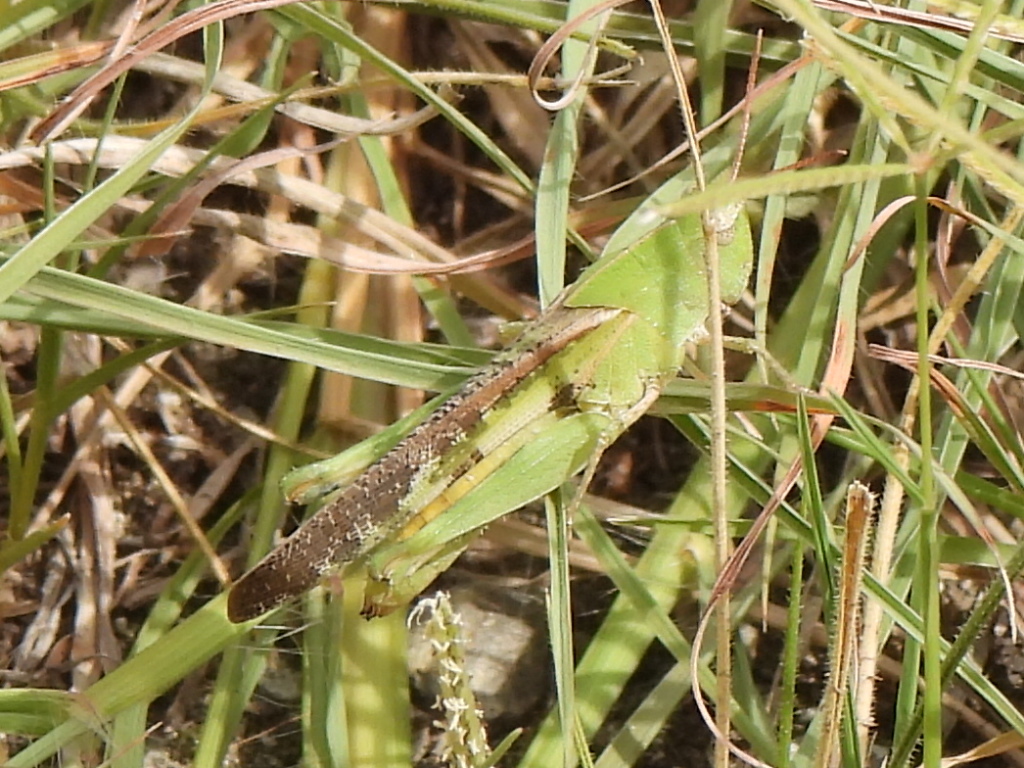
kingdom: Animalia
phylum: Arthropoda
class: Insecta
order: Orthoptera
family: Acrididae
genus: Chortophaga
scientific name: Chortophaga viridifasciata
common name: Green-striped grasshopper
